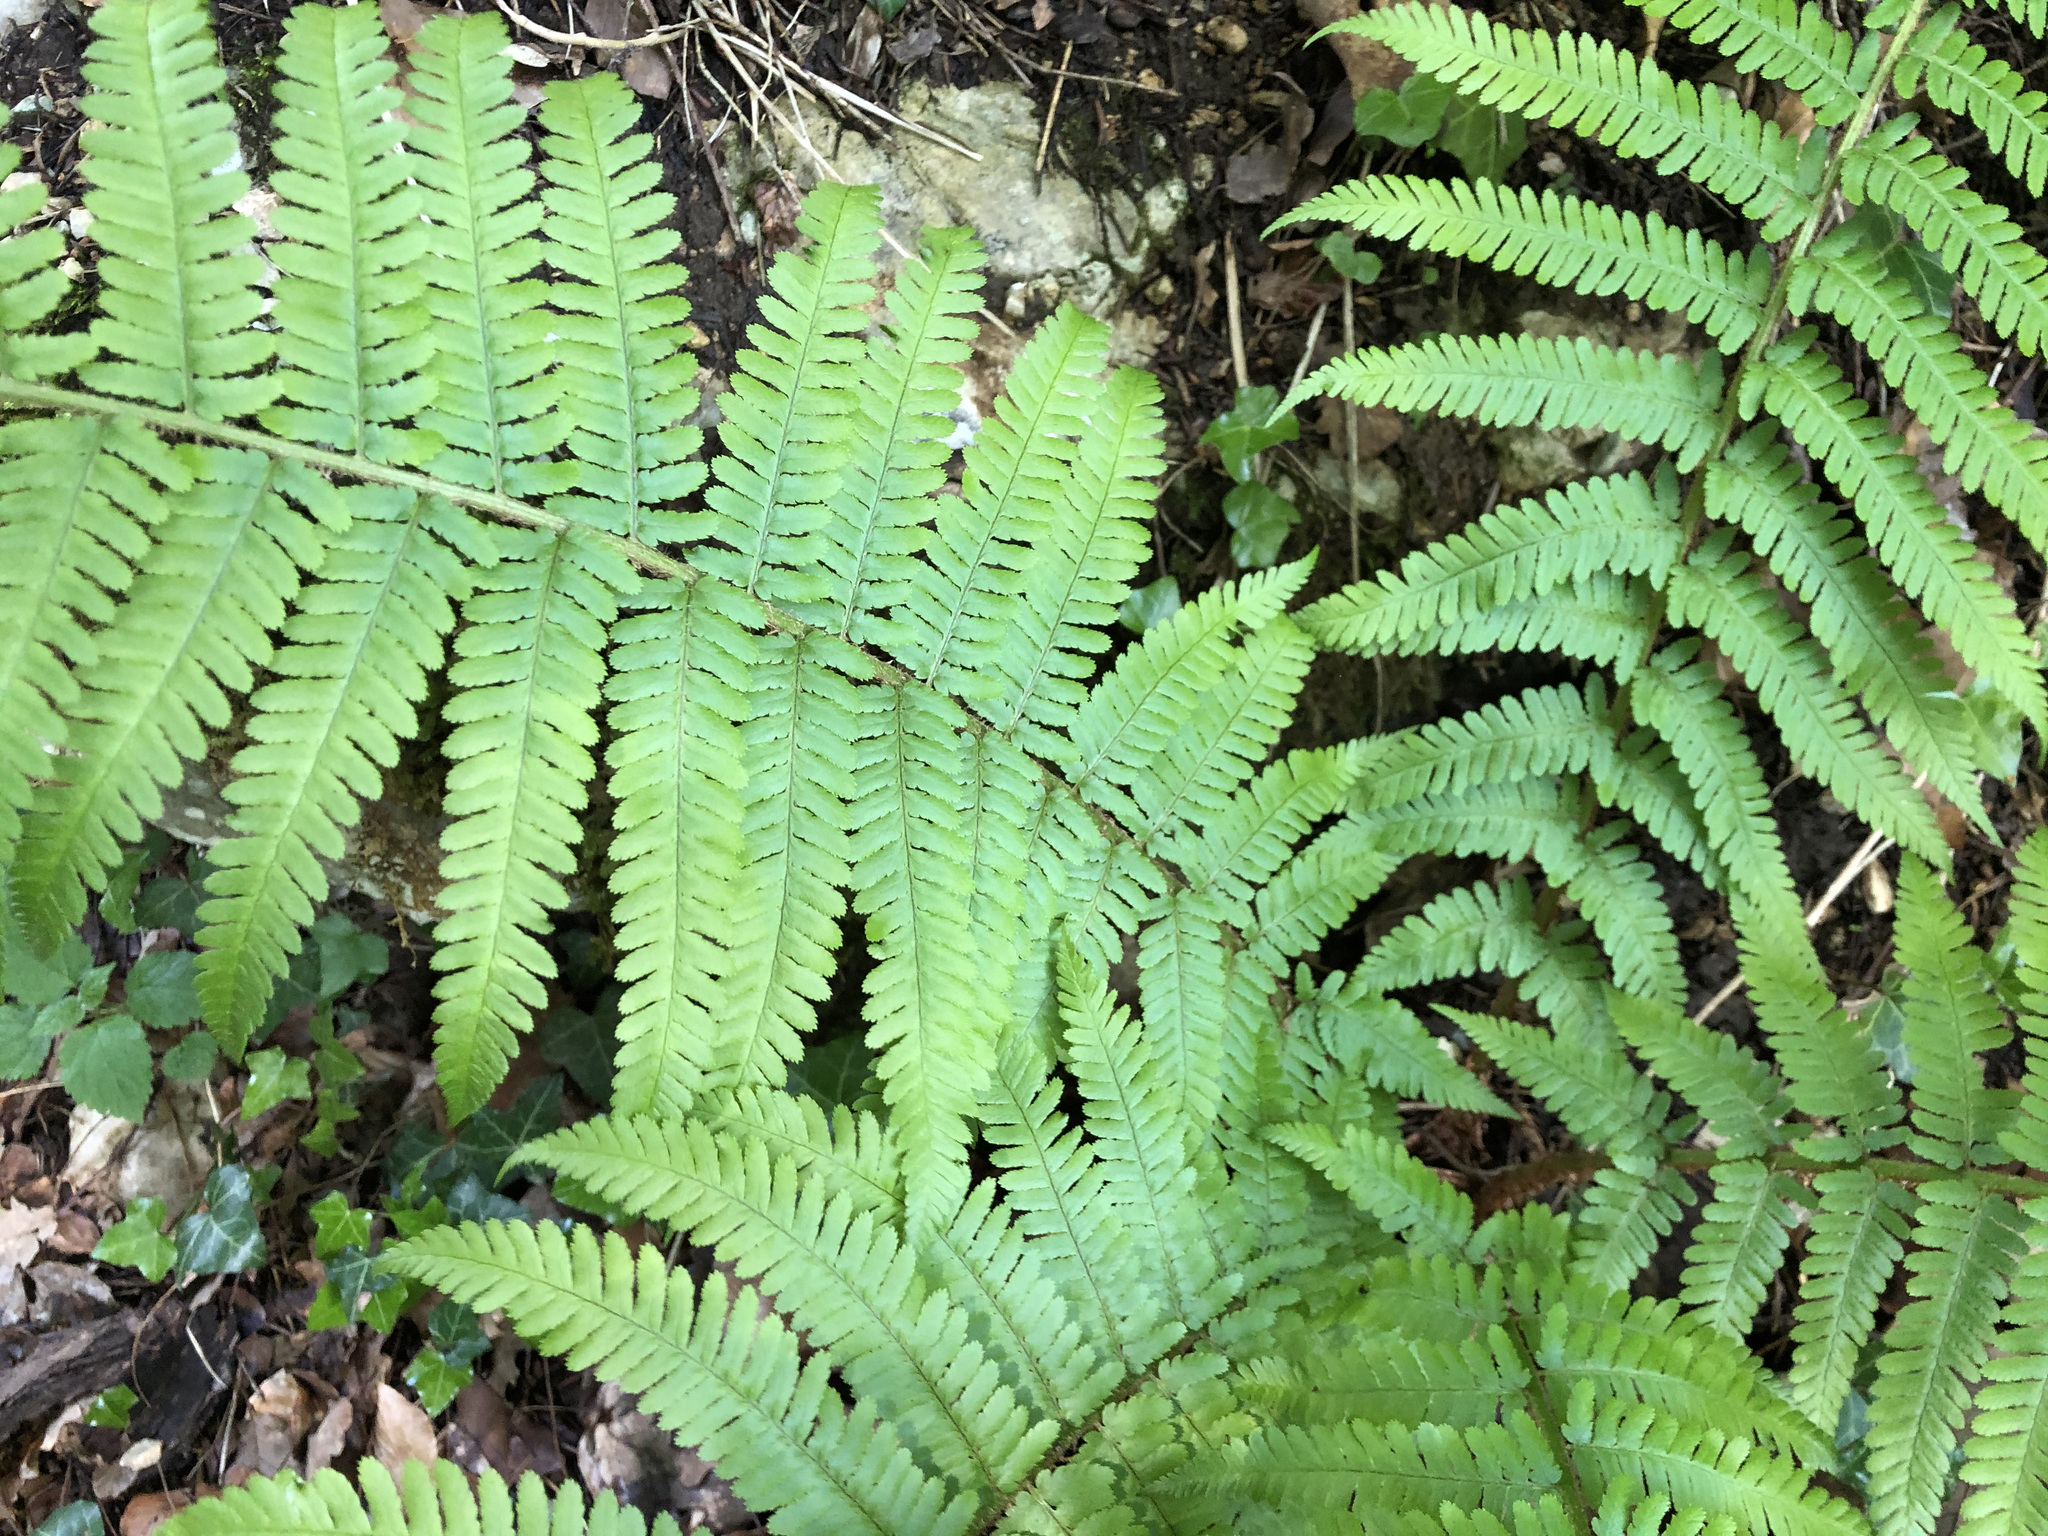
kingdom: Plantae
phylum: Tracheophyta
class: Polypodiopsida
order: Polypodiales
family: Dryopteridaceae
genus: Dryopteris
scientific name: Dryopteris filix-mas
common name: Male fern
